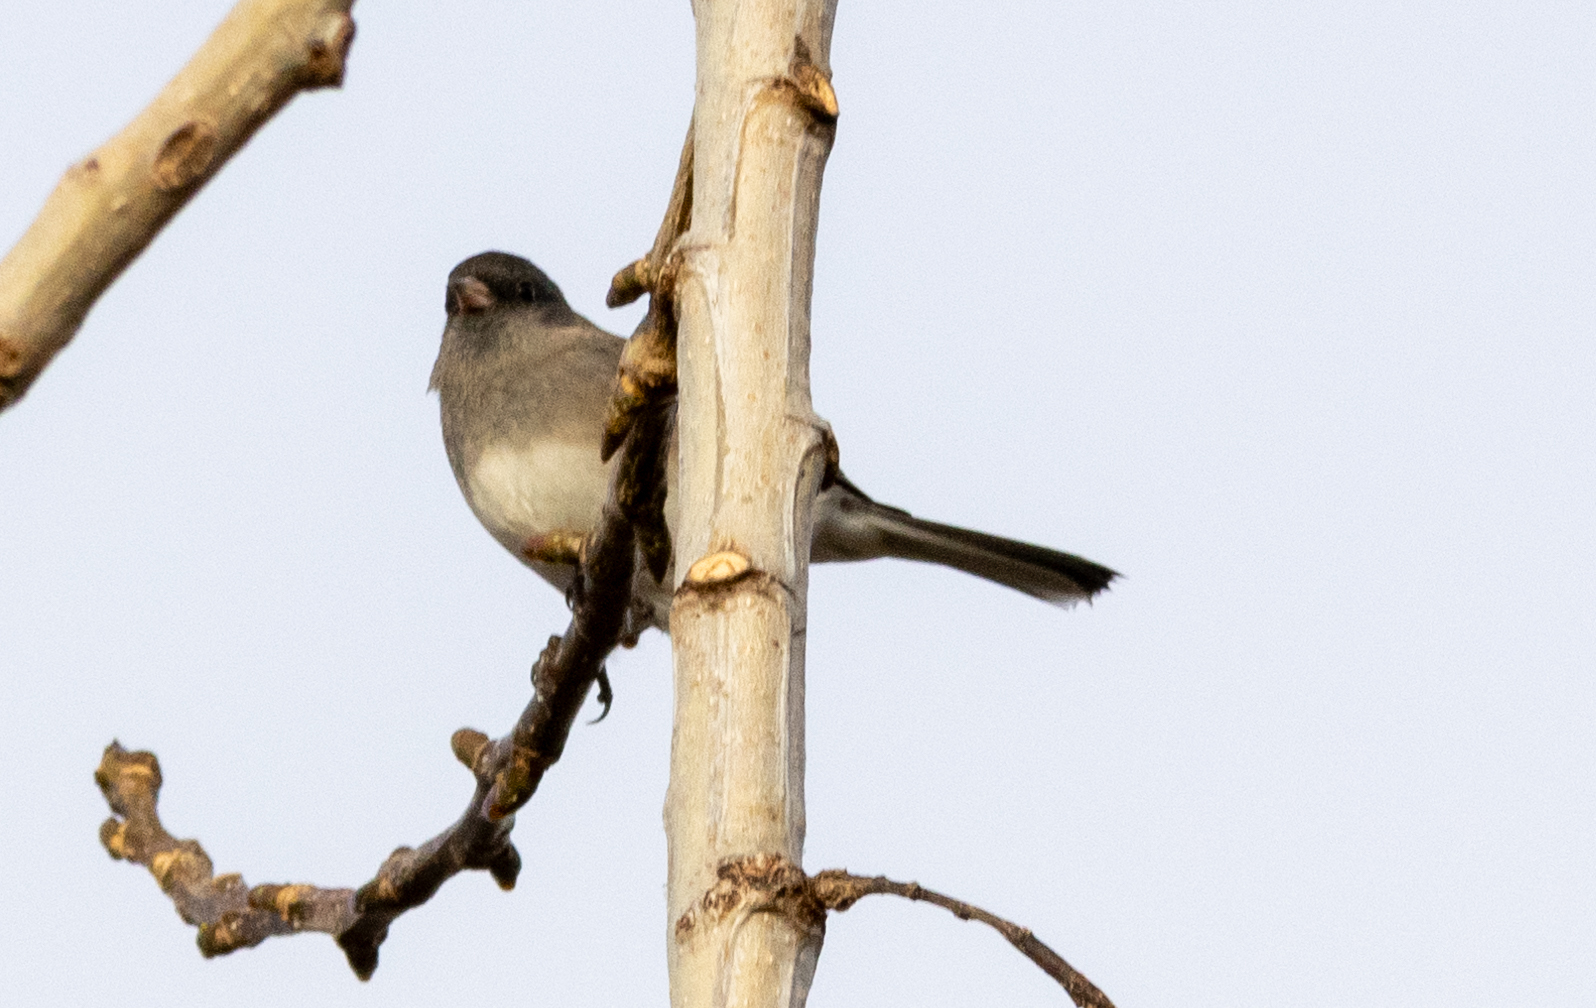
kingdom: Animalia
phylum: Chordata
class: Aves
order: Passeriformes
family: Passerellidae
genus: Junco
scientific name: Junco hyemalis
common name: Dark-eyed junco
